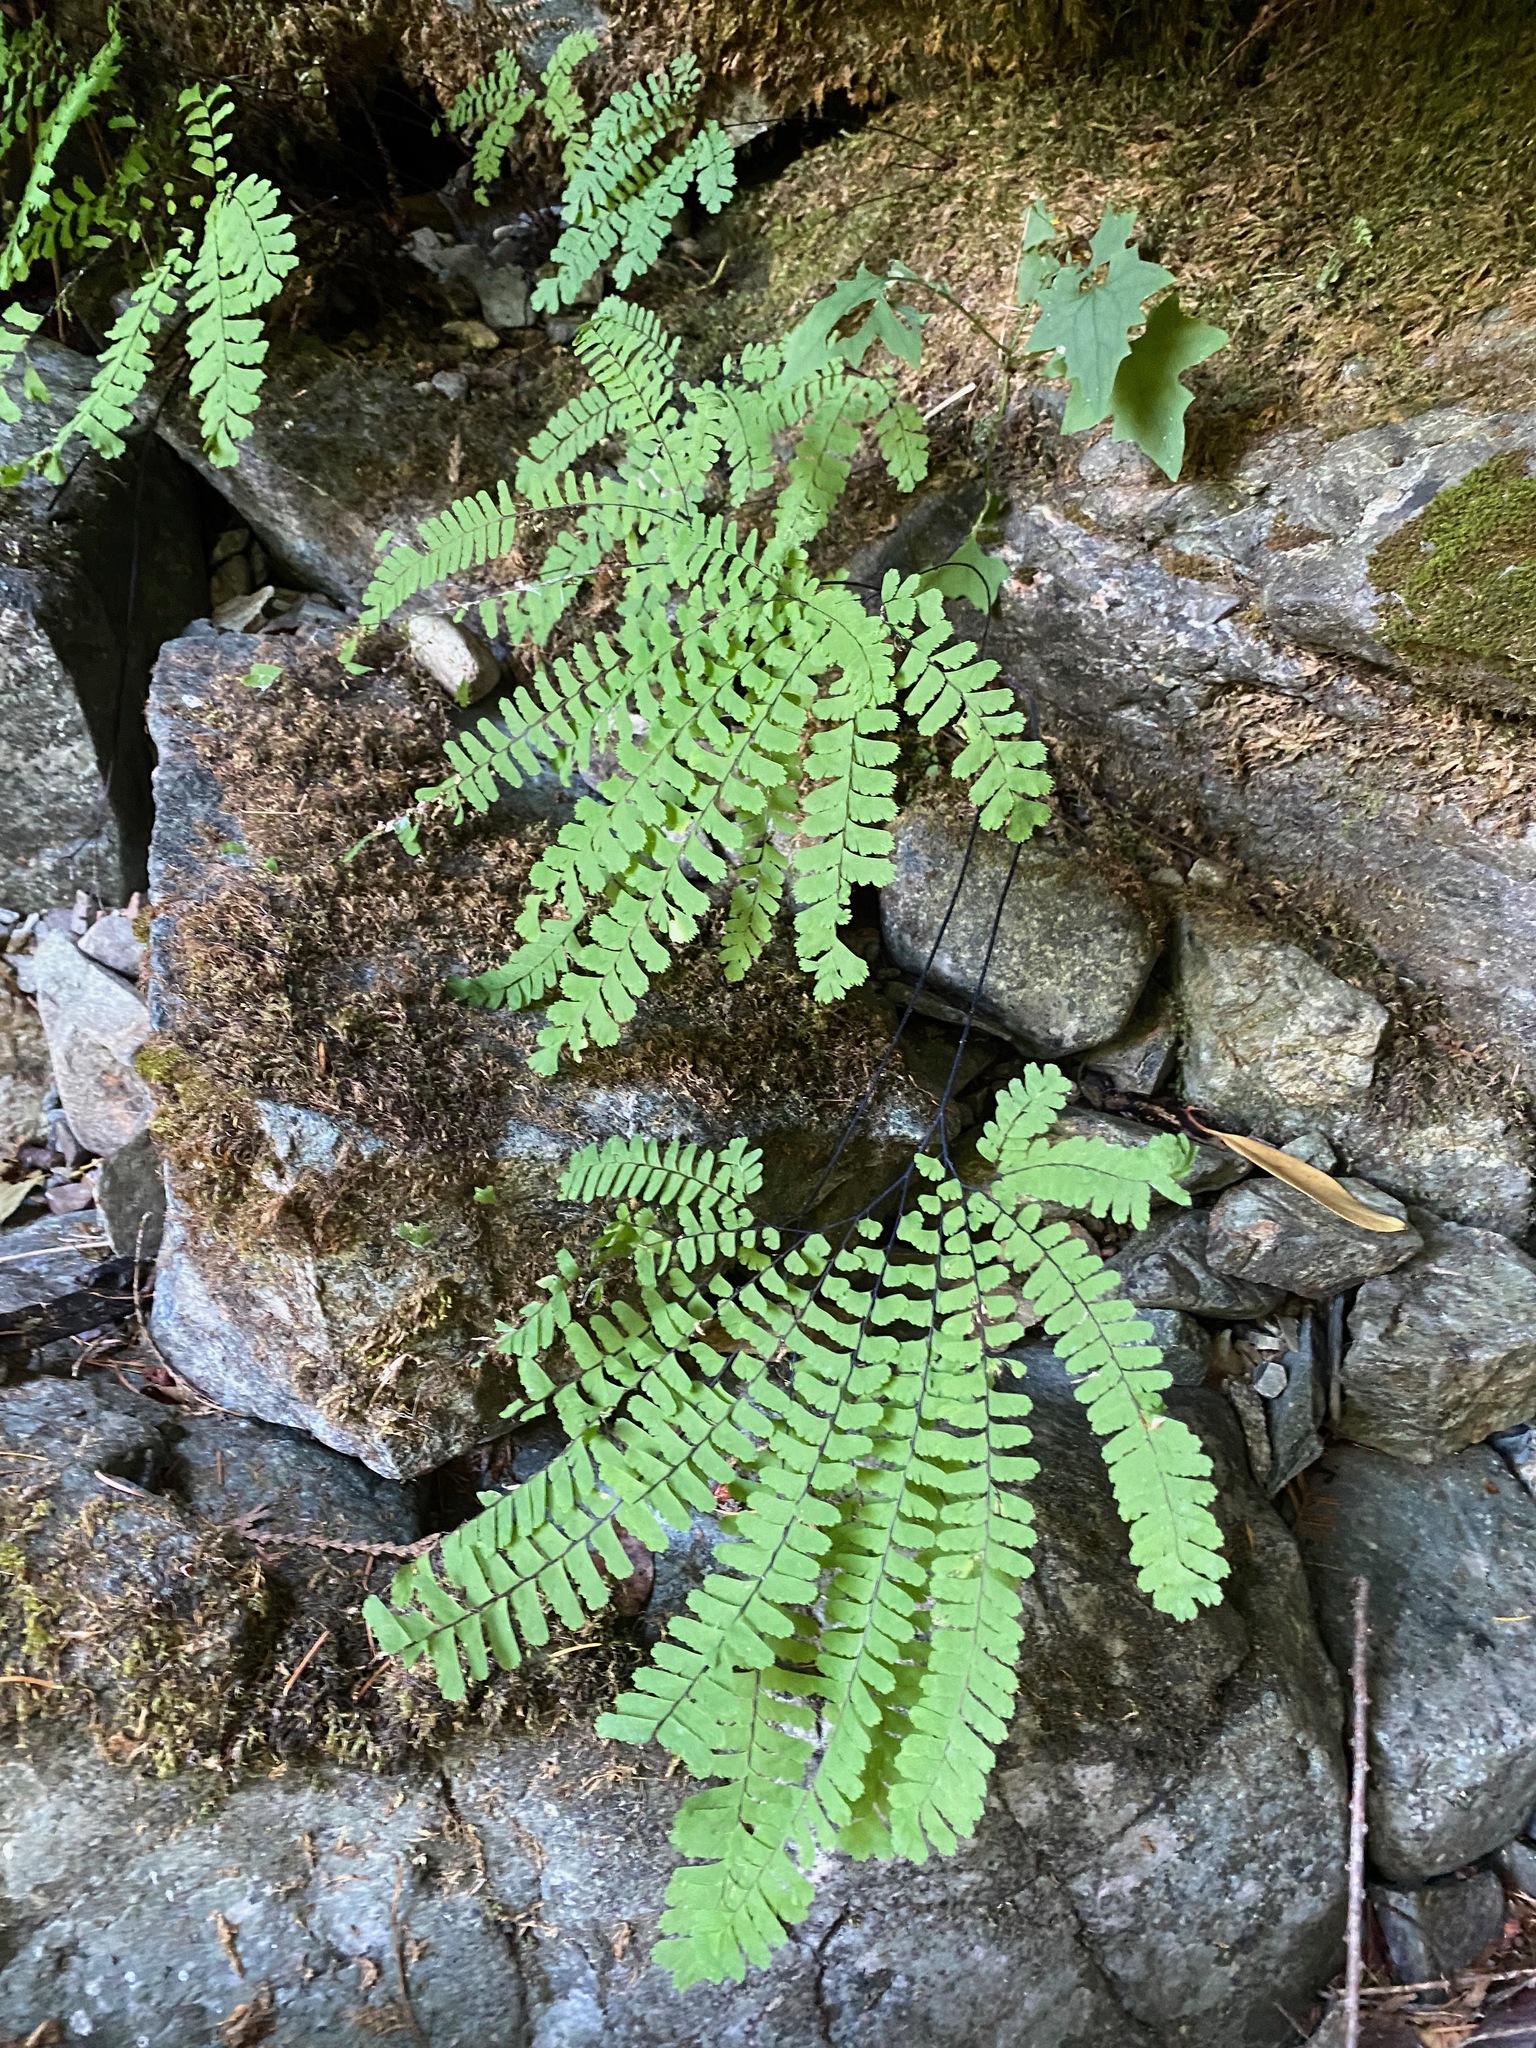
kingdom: Plantae
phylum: Tracheophyta
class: Polypodiopsida
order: Polypodiales
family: Pteridaceae
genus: Adiantum
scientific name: Adiantum aleuticum
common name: Aleutian maidenhair fern
